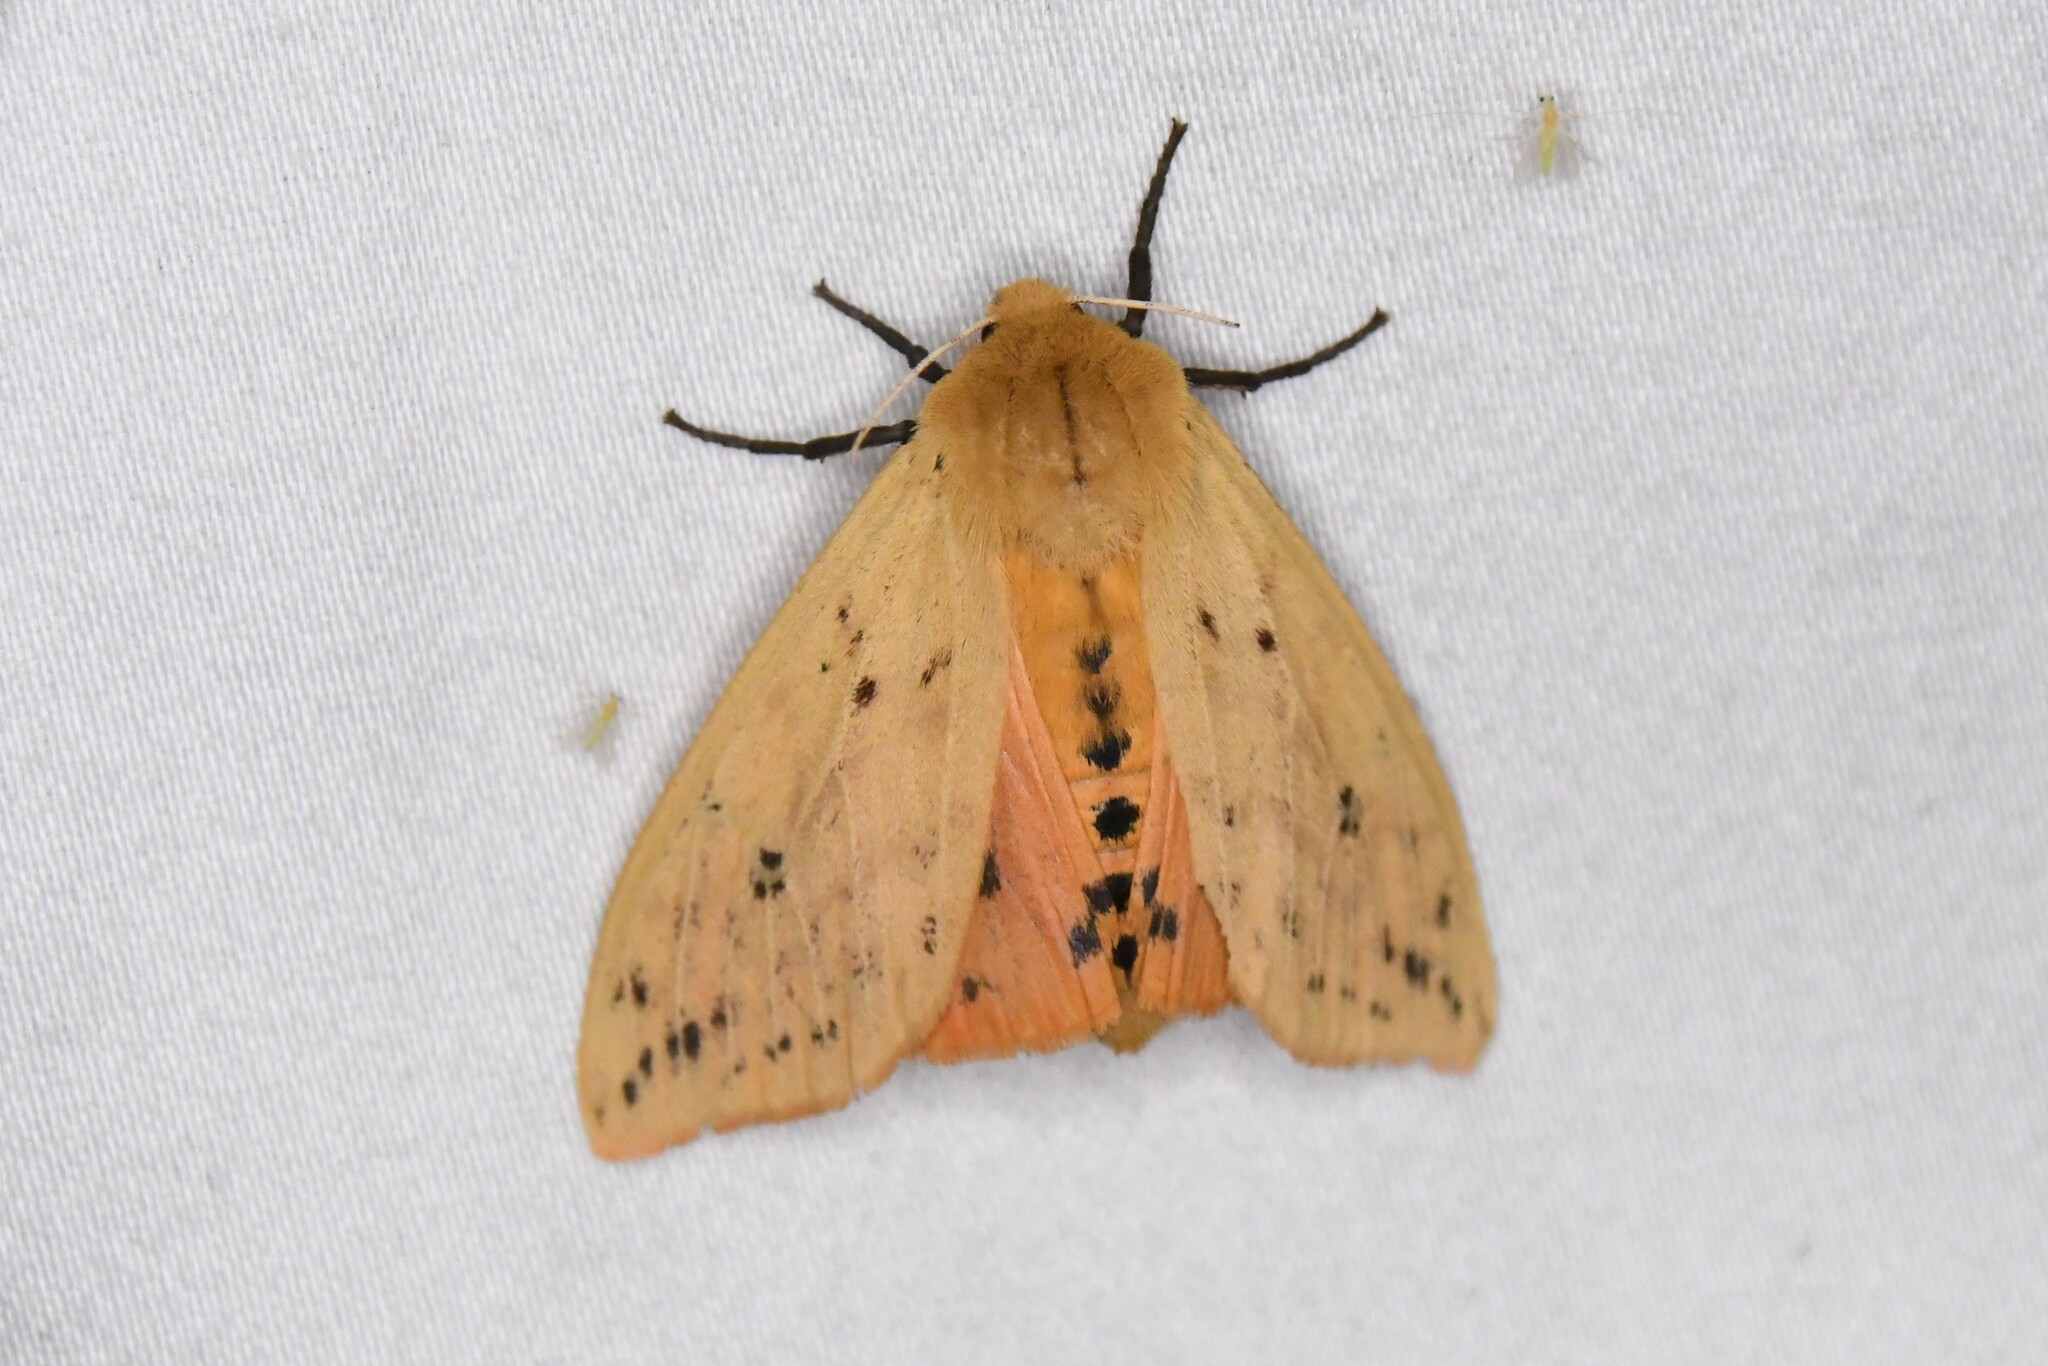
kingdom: Animalia
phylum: Arthropoda
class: Insecta
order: Lepidoptera
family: Erebidae
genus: Pyrrharctia
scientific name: Pyrrharctia isabella
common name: Isabella tiger moth
